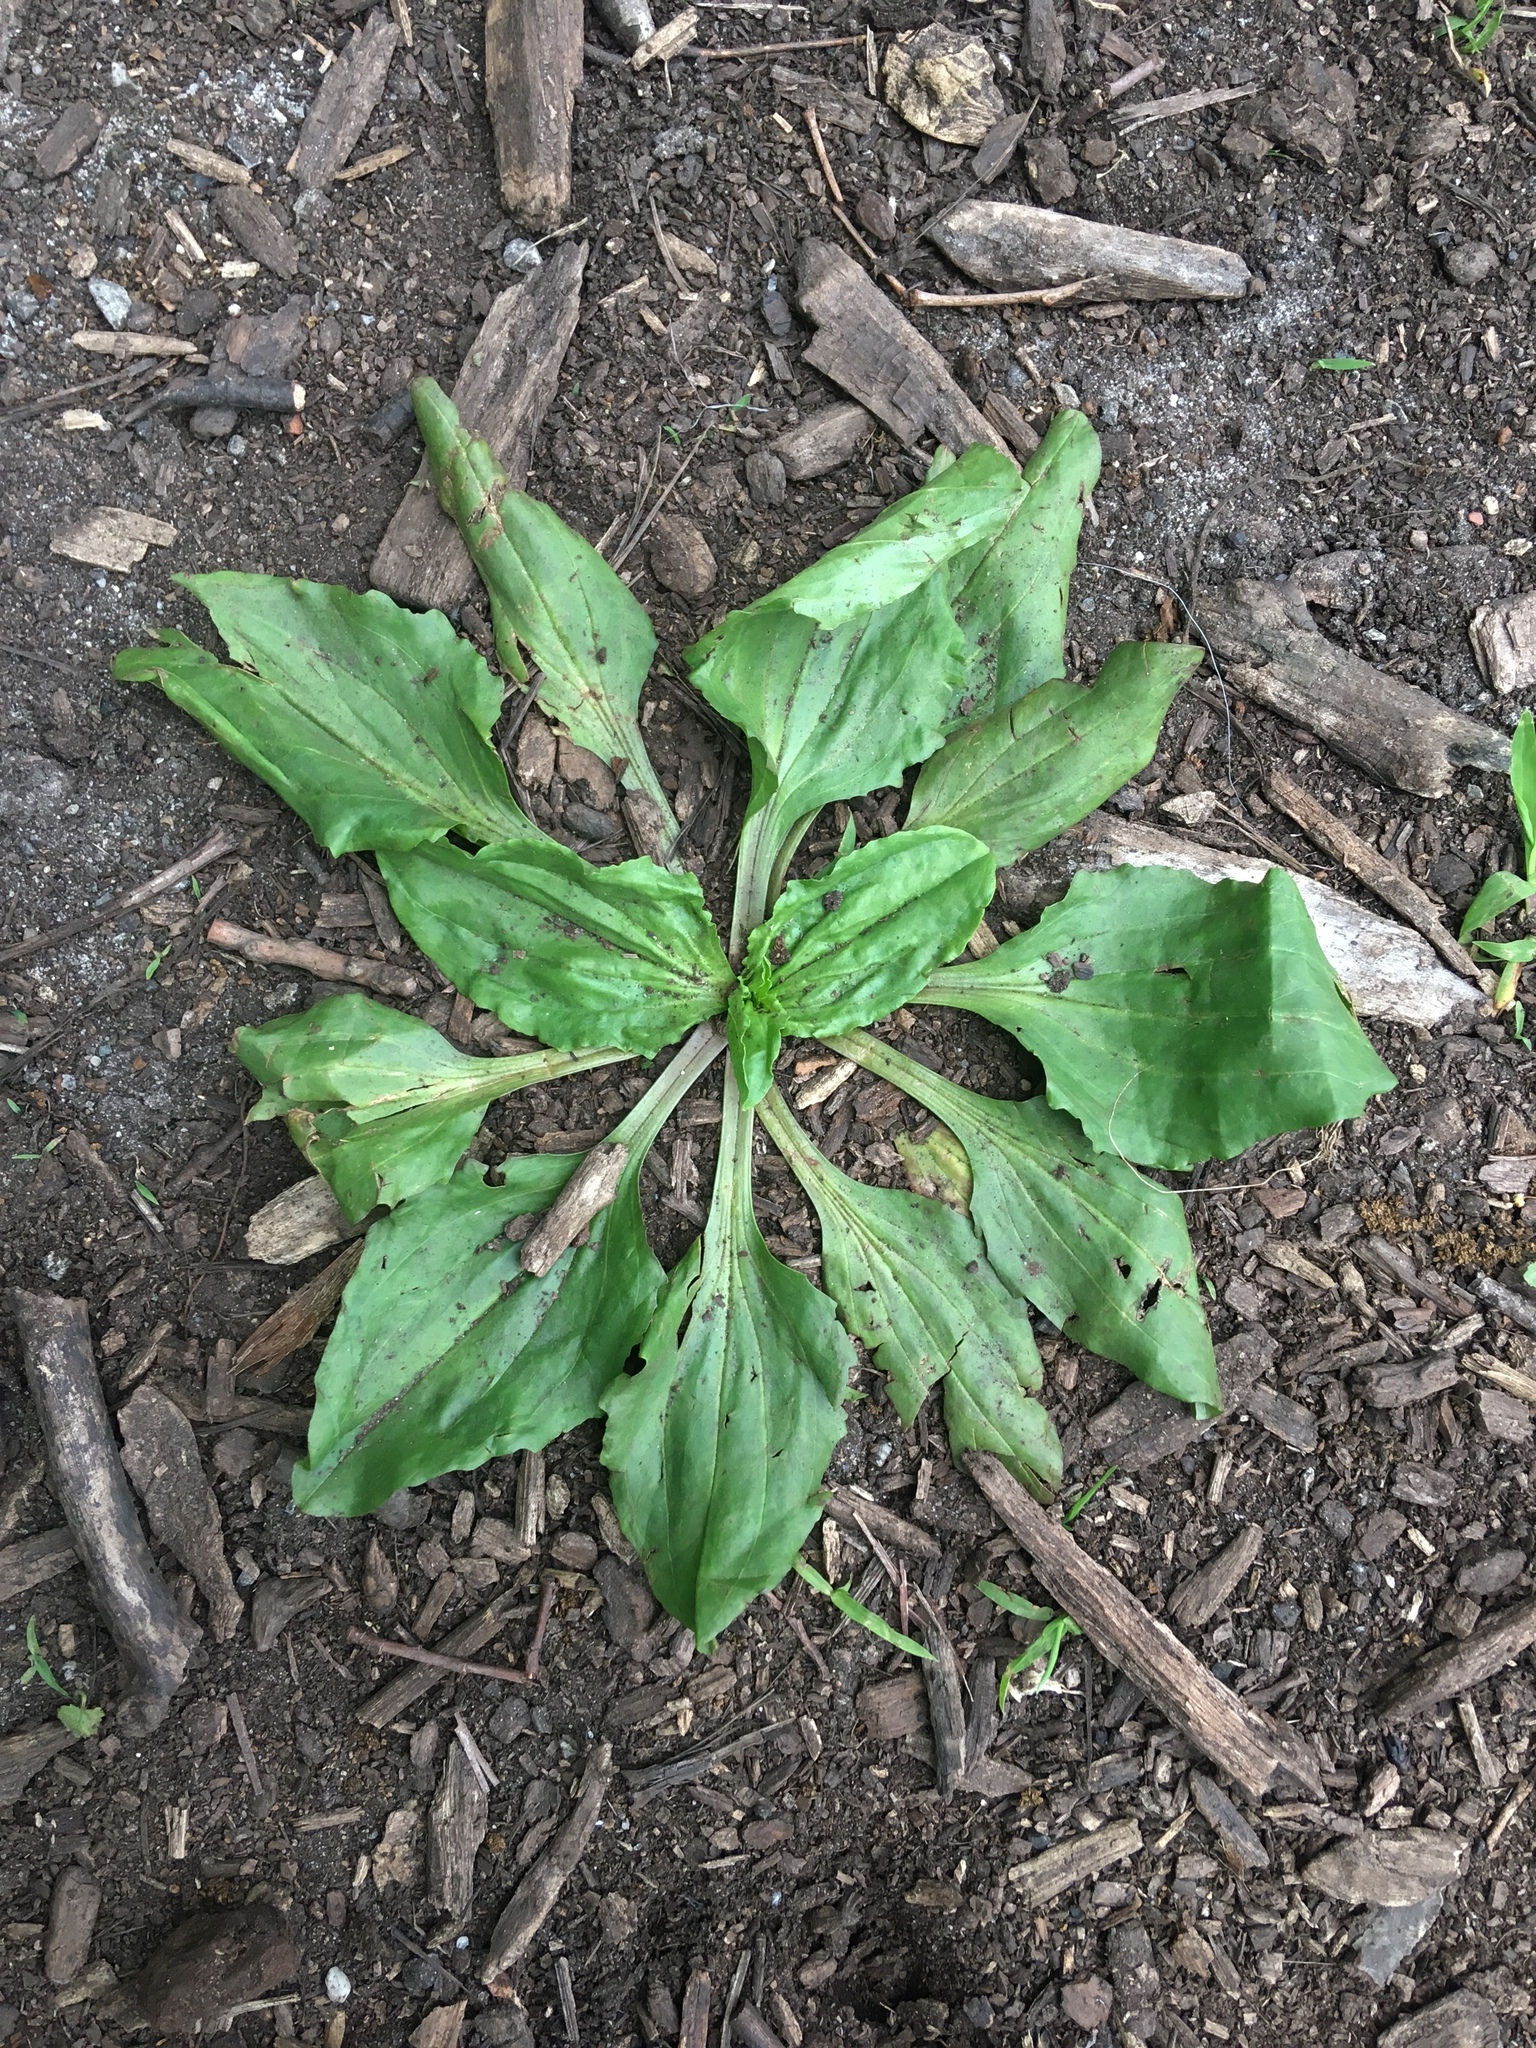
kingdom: Plantae
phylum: Tracheophyta
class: Magnoliopsida
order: Lamiales
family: Plantaginaceae
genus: Plantago
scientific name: Plantago major
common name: Common plantain
